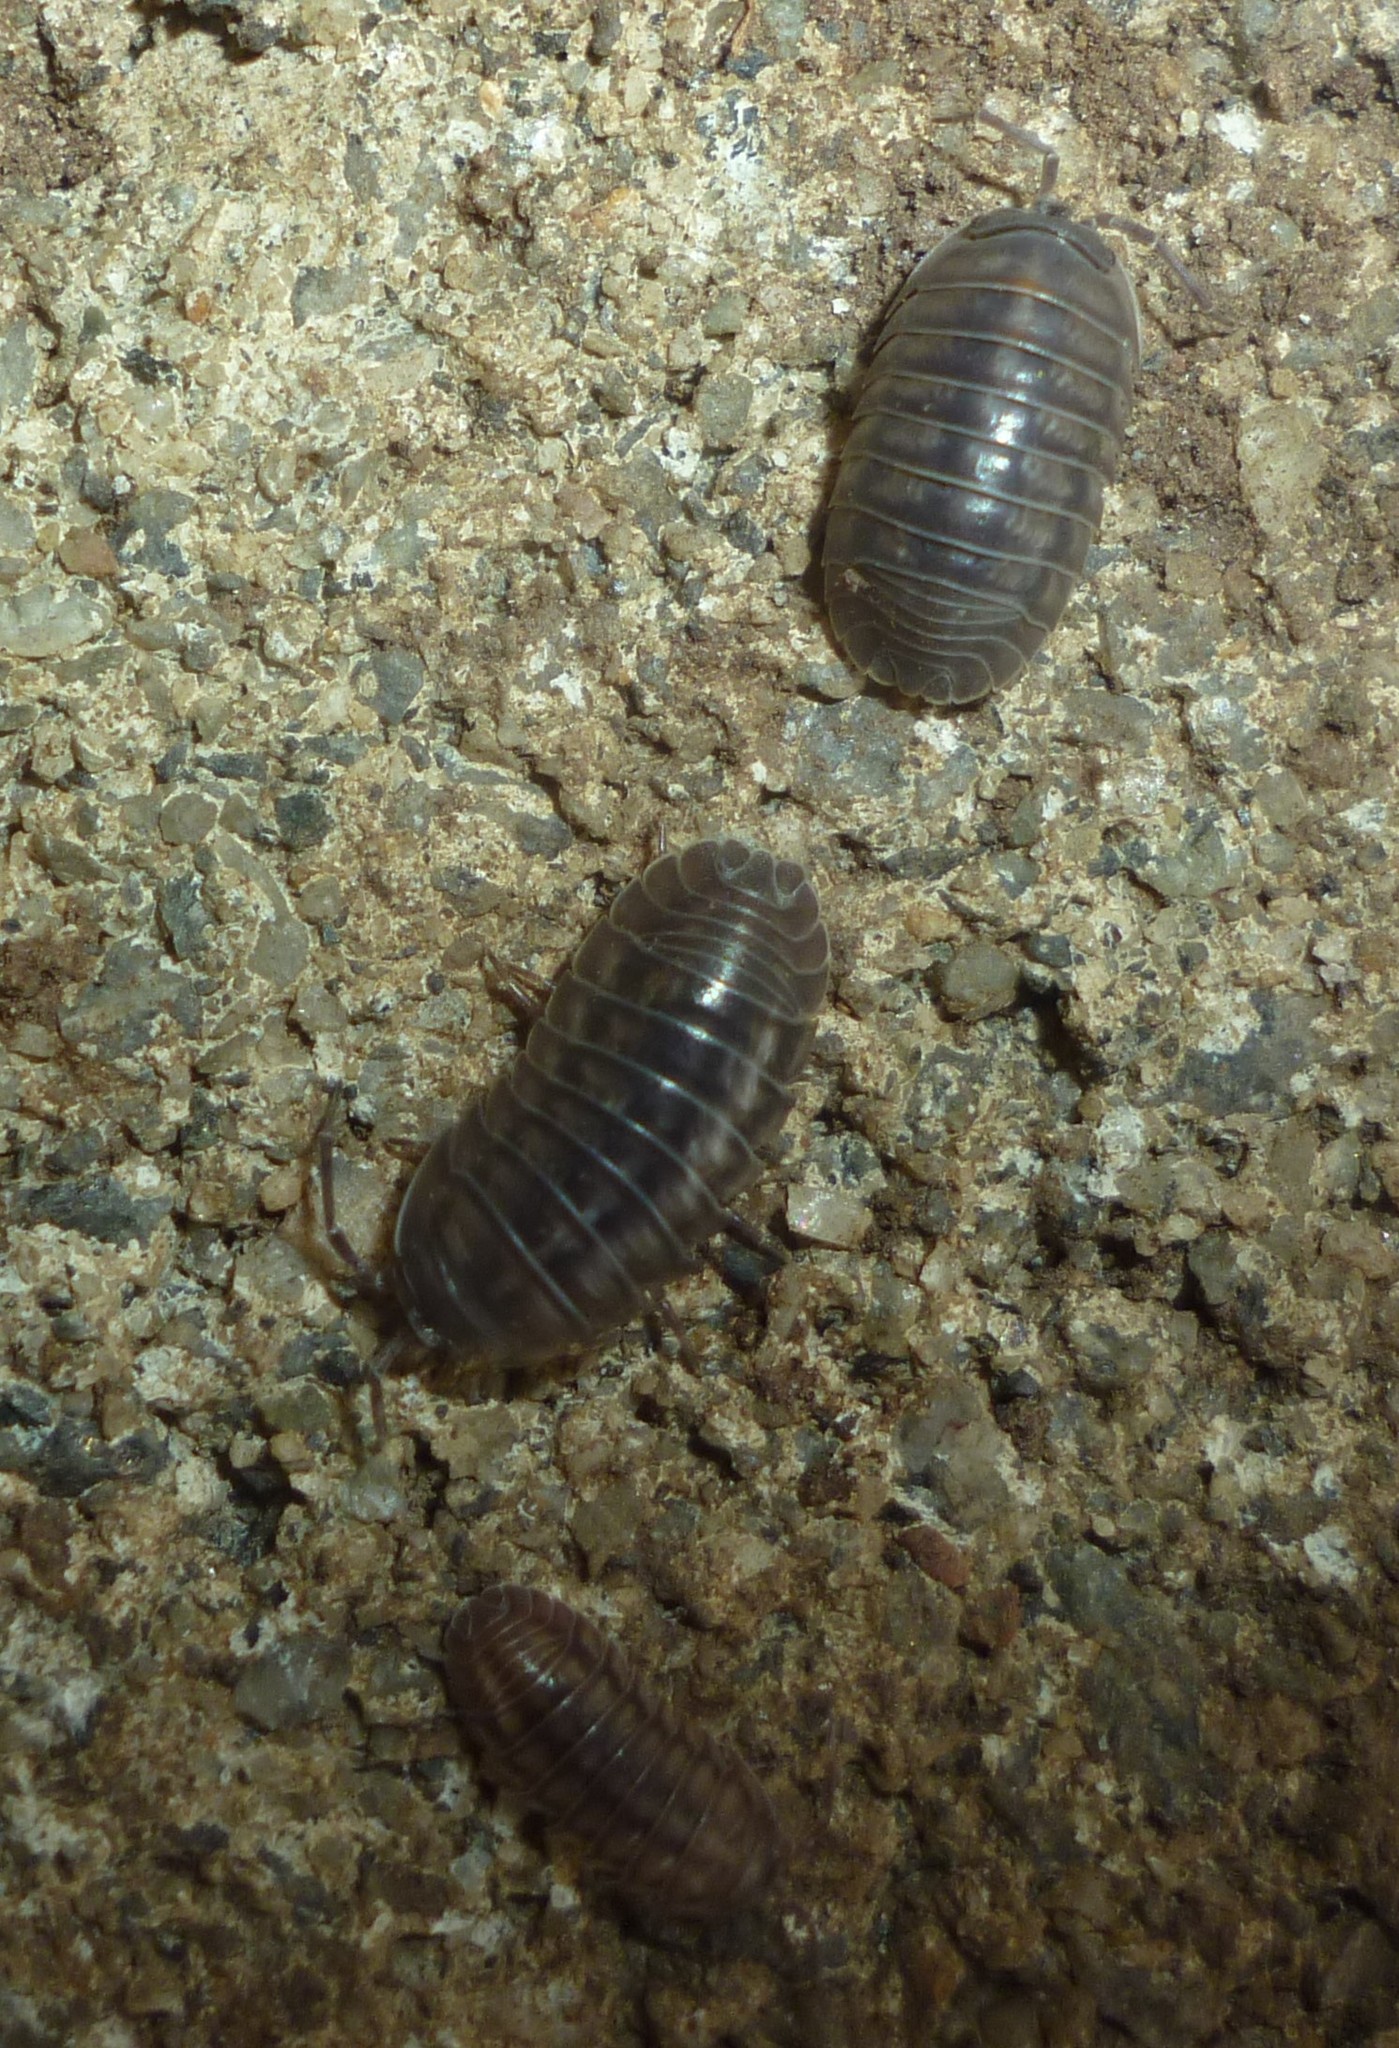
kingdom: Animalia
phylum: Arthropoda
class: Malacostraca
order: Isopoda
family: Armadillidiidae
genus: Armadillidium
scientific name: Armadillidium nasatum
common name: Isopod
